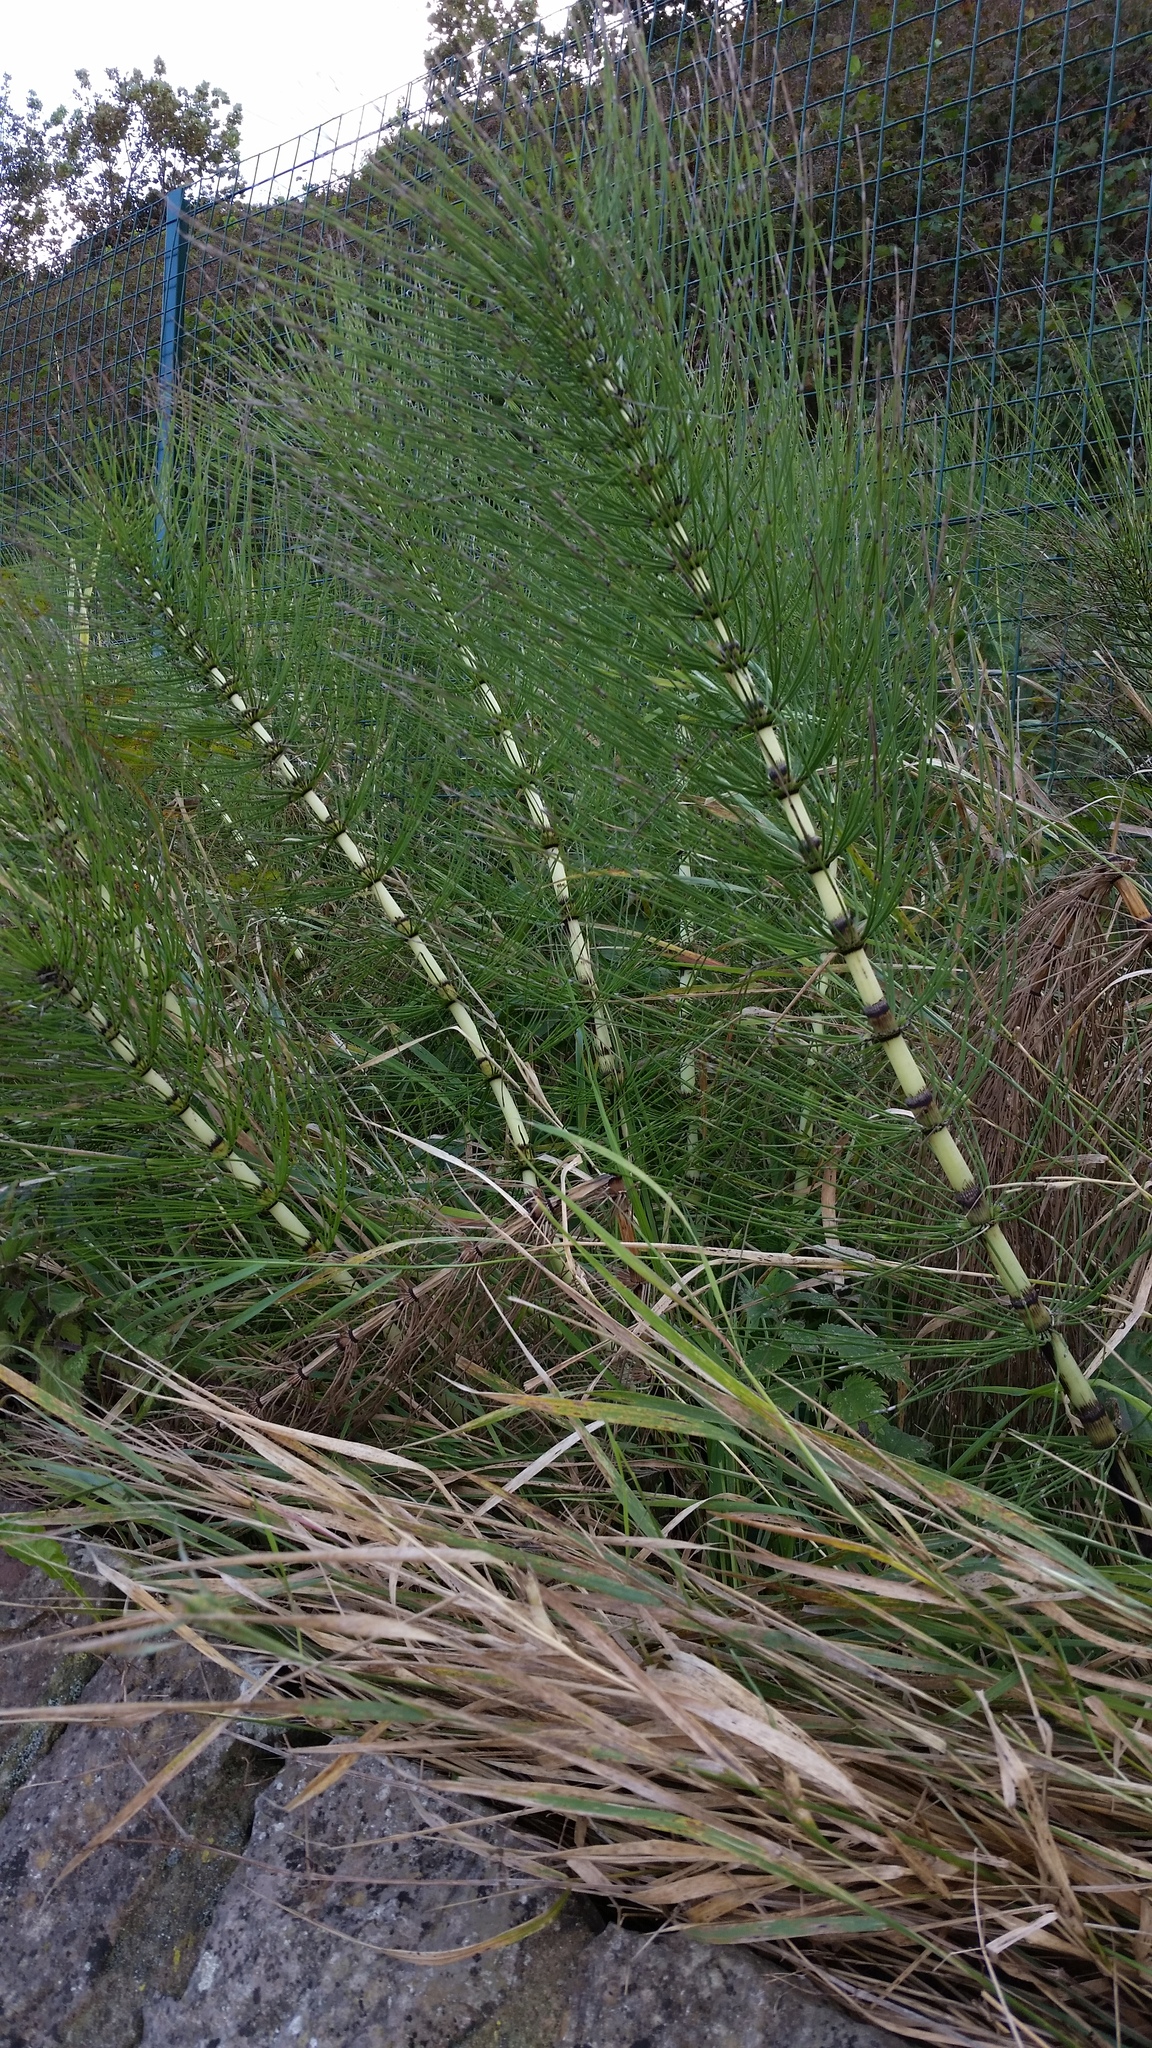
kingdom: Plantae
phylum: Tracheophyta
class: Polypodiopsida
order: Equisetales
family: Equisetaceae
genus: Equisetum
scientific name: Equisetum telmateia
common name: Great horsetail
